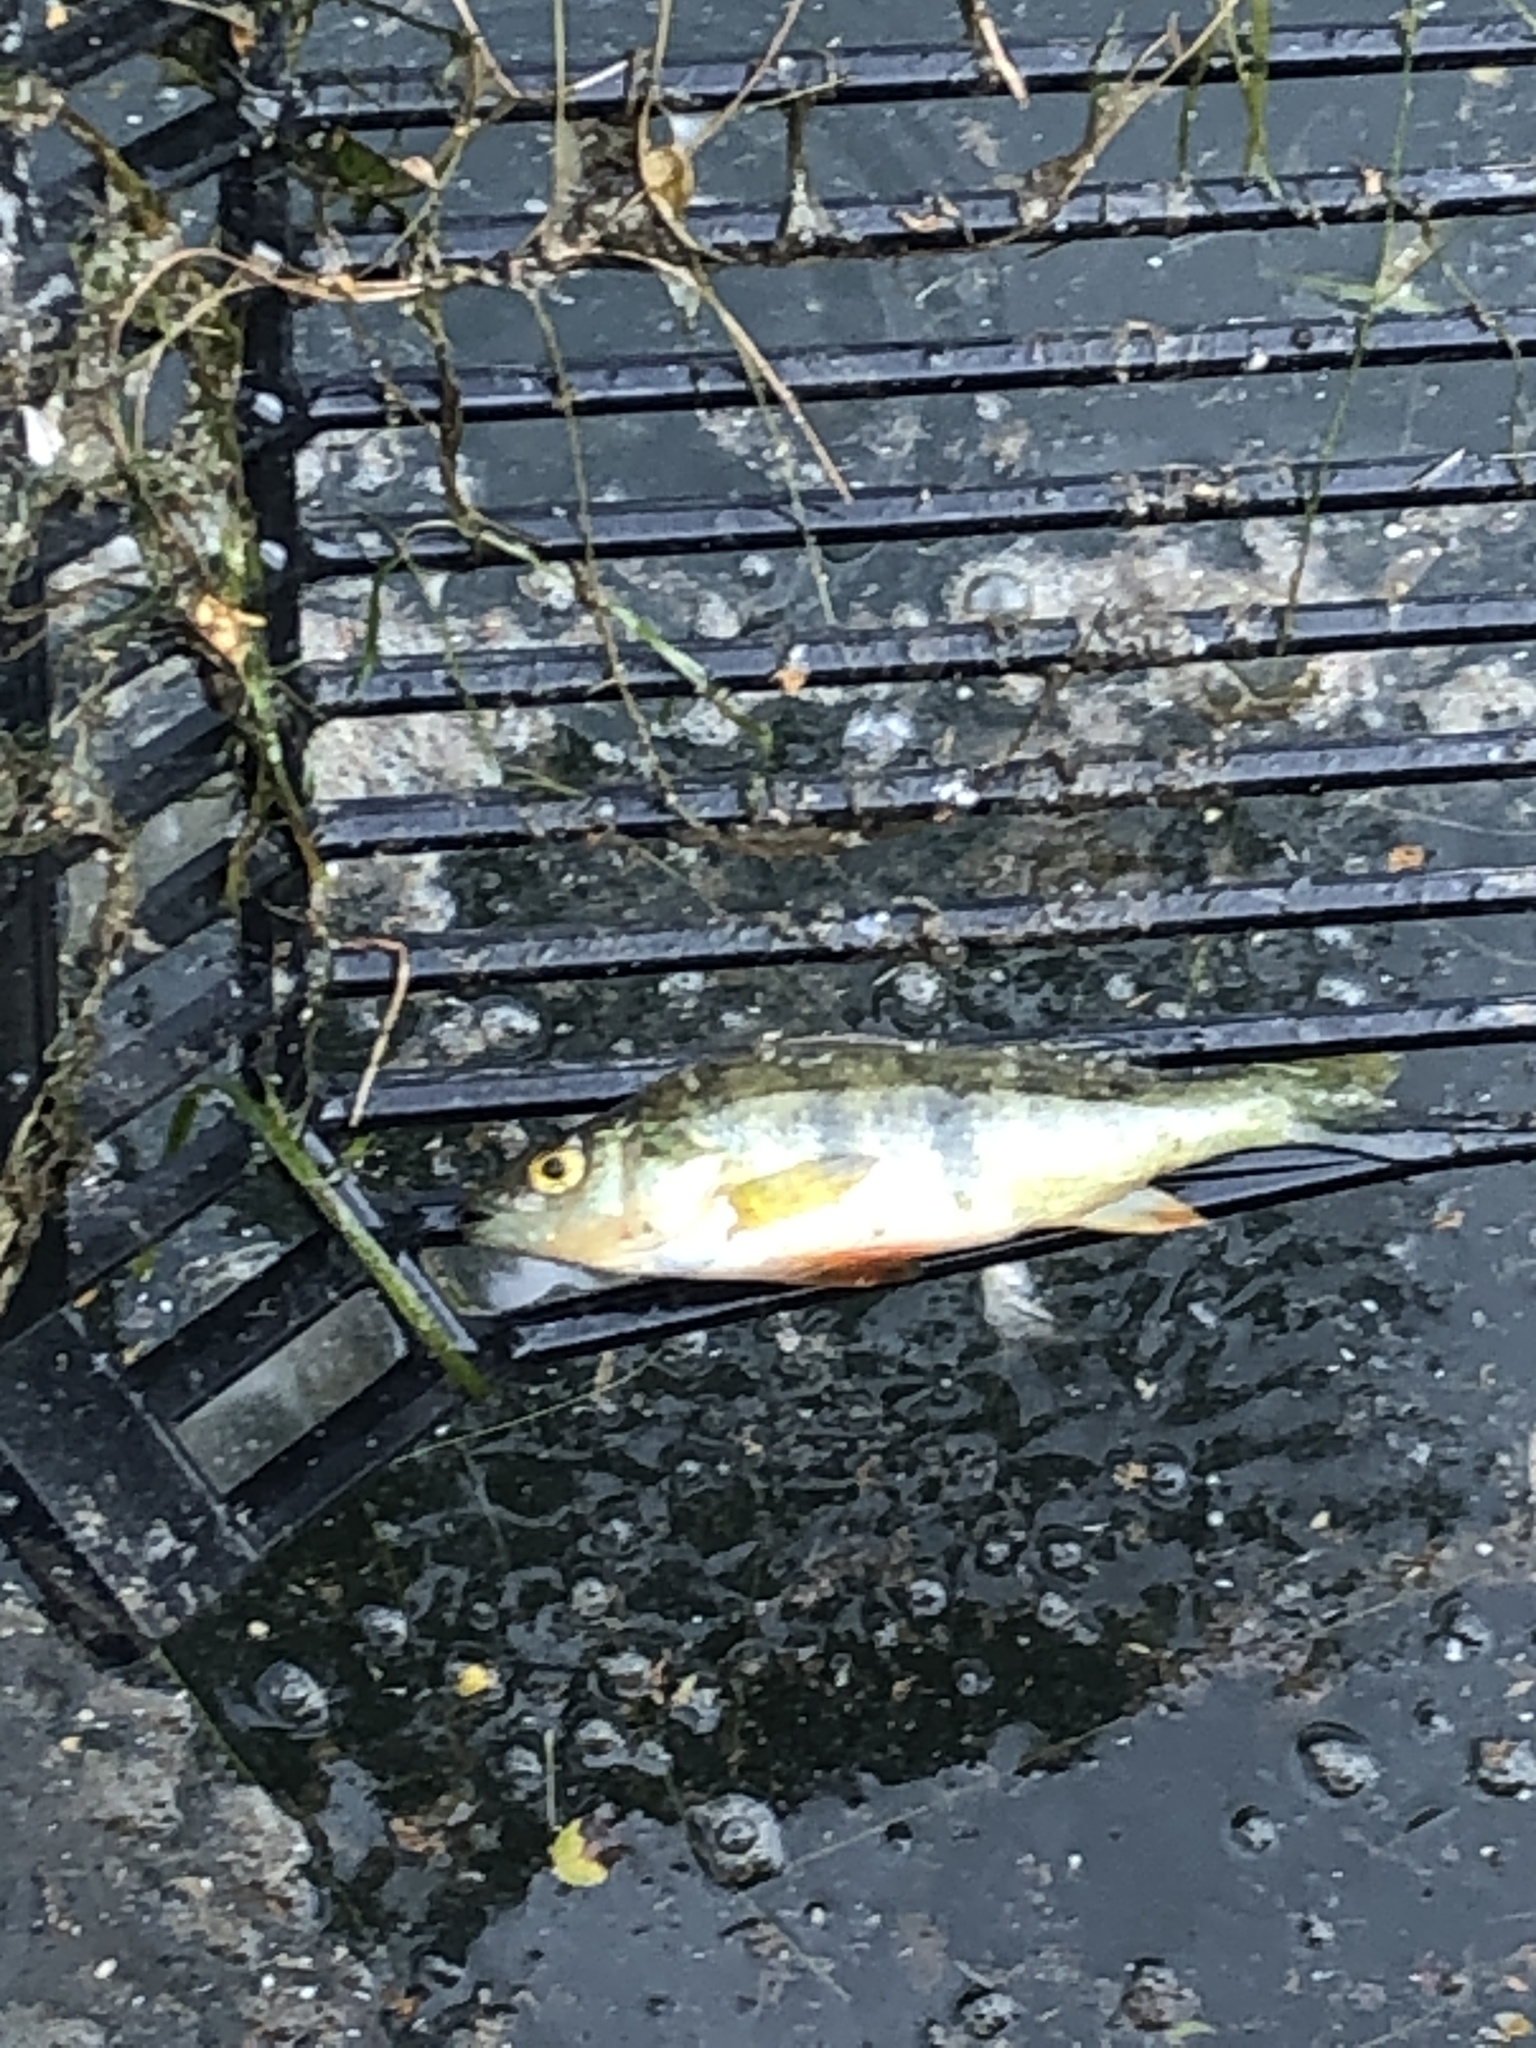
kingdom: Animalia
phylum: Chordata
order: Perciformes
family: Percidae
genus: Perca
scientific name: Perca flavescens
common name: Yellow perch
